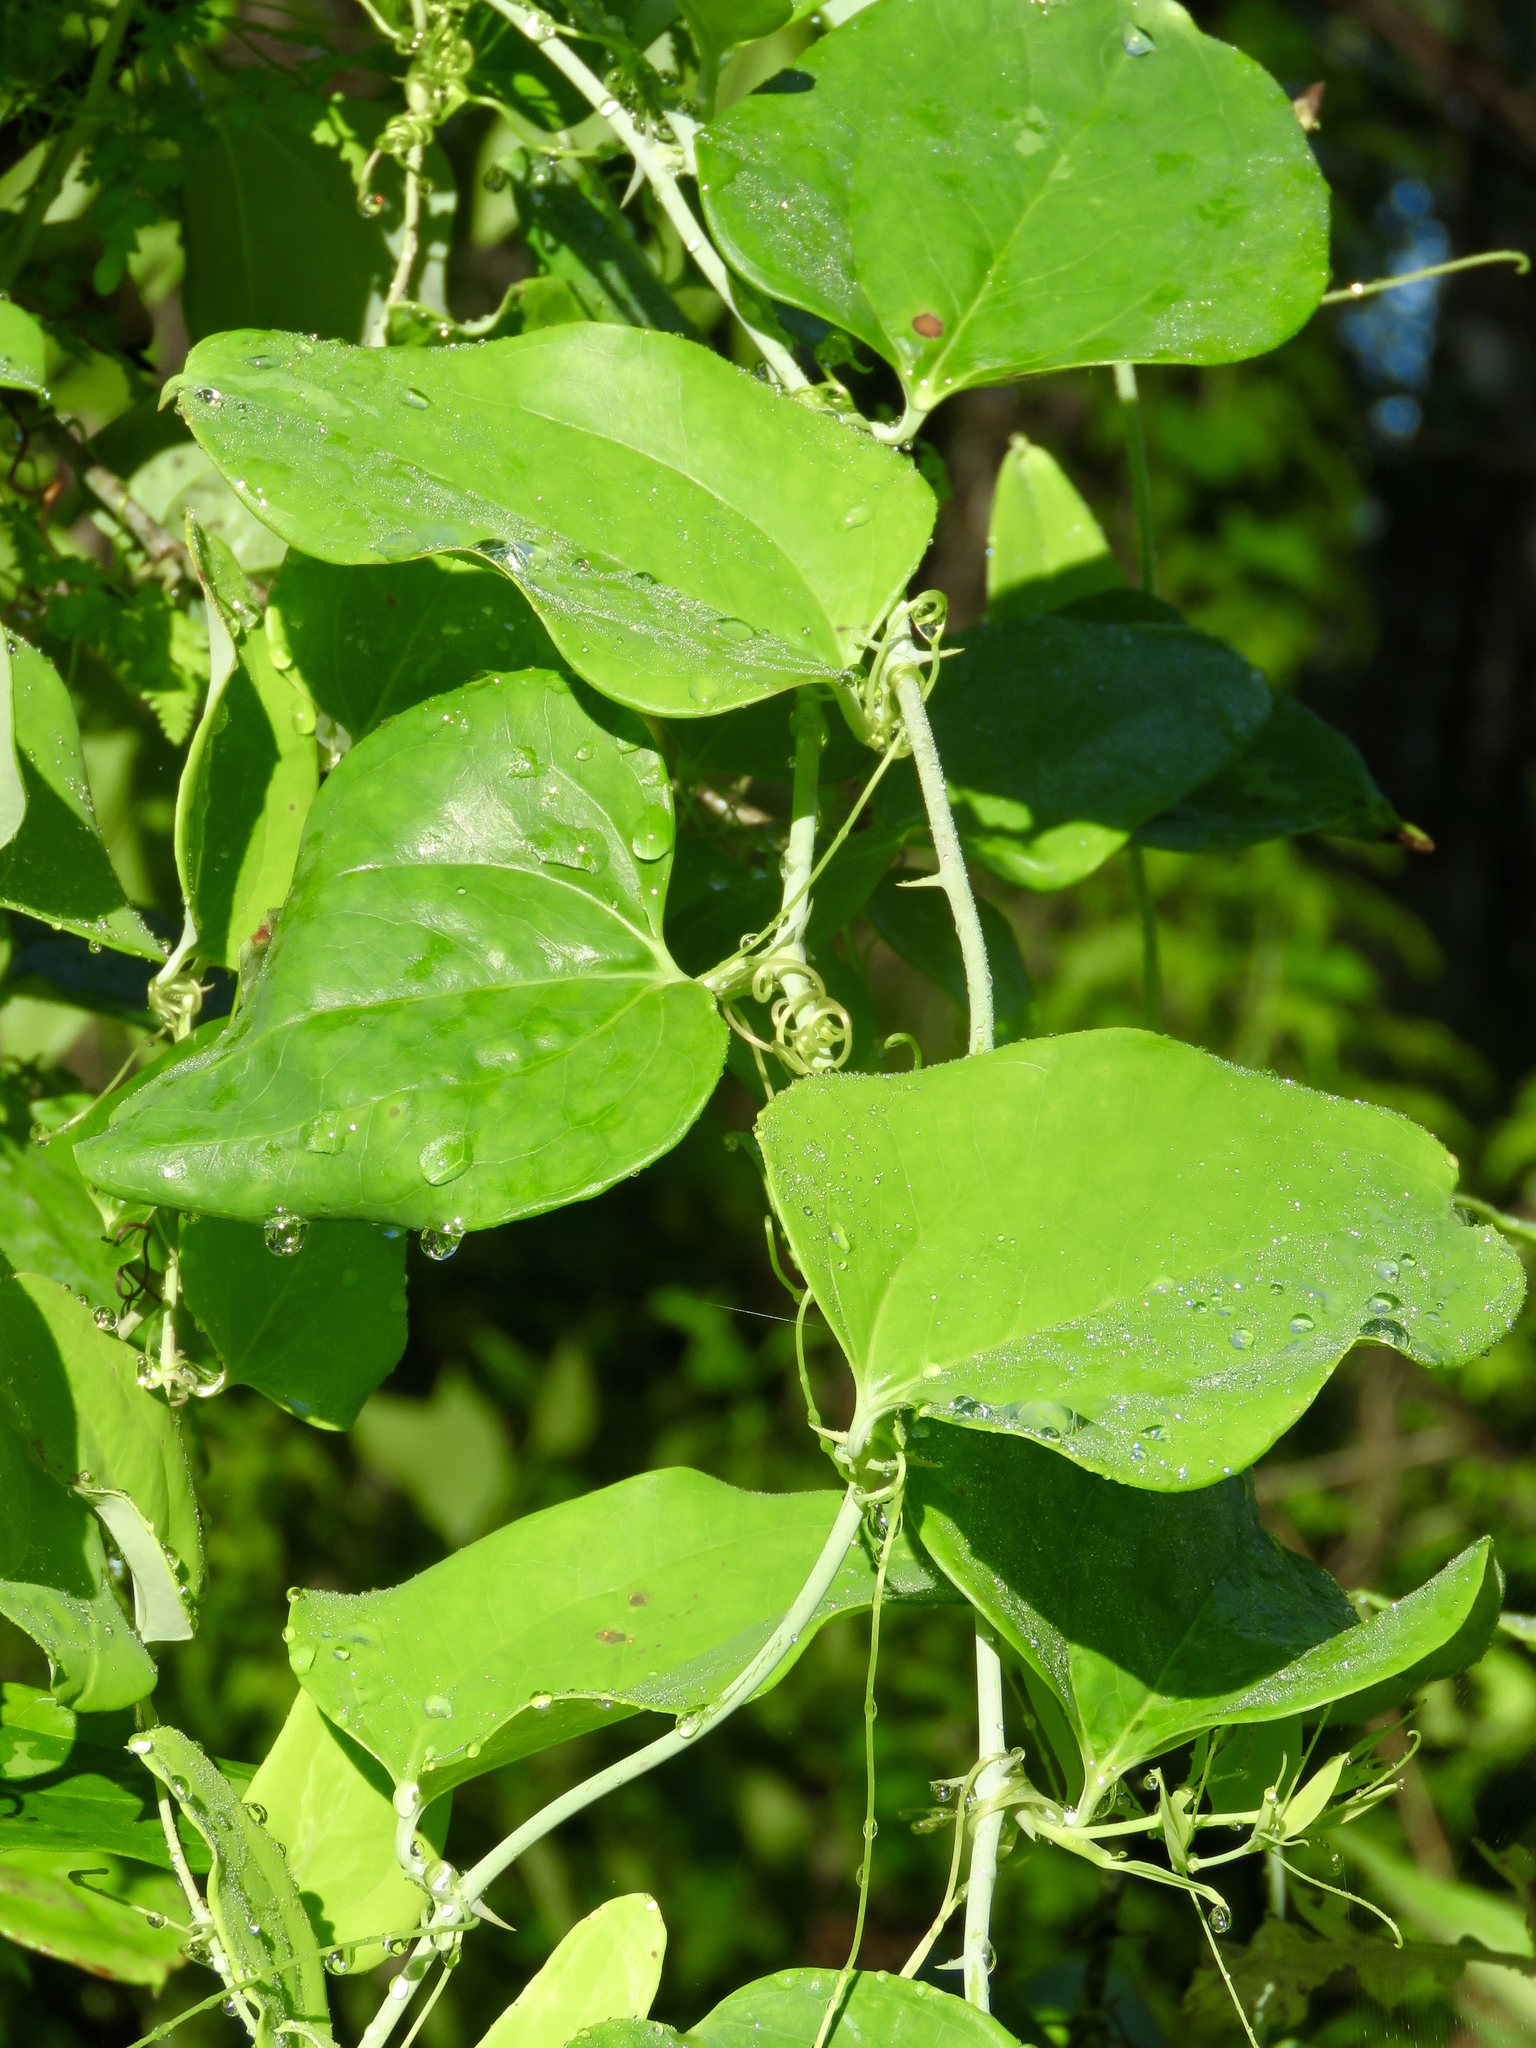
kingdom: Plantae
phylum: Tracheophyta
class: Liliopsida
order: Liliales
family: Smilacaceae
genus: Smilax
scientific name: Smilax glauca
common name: Cat greenbrier
